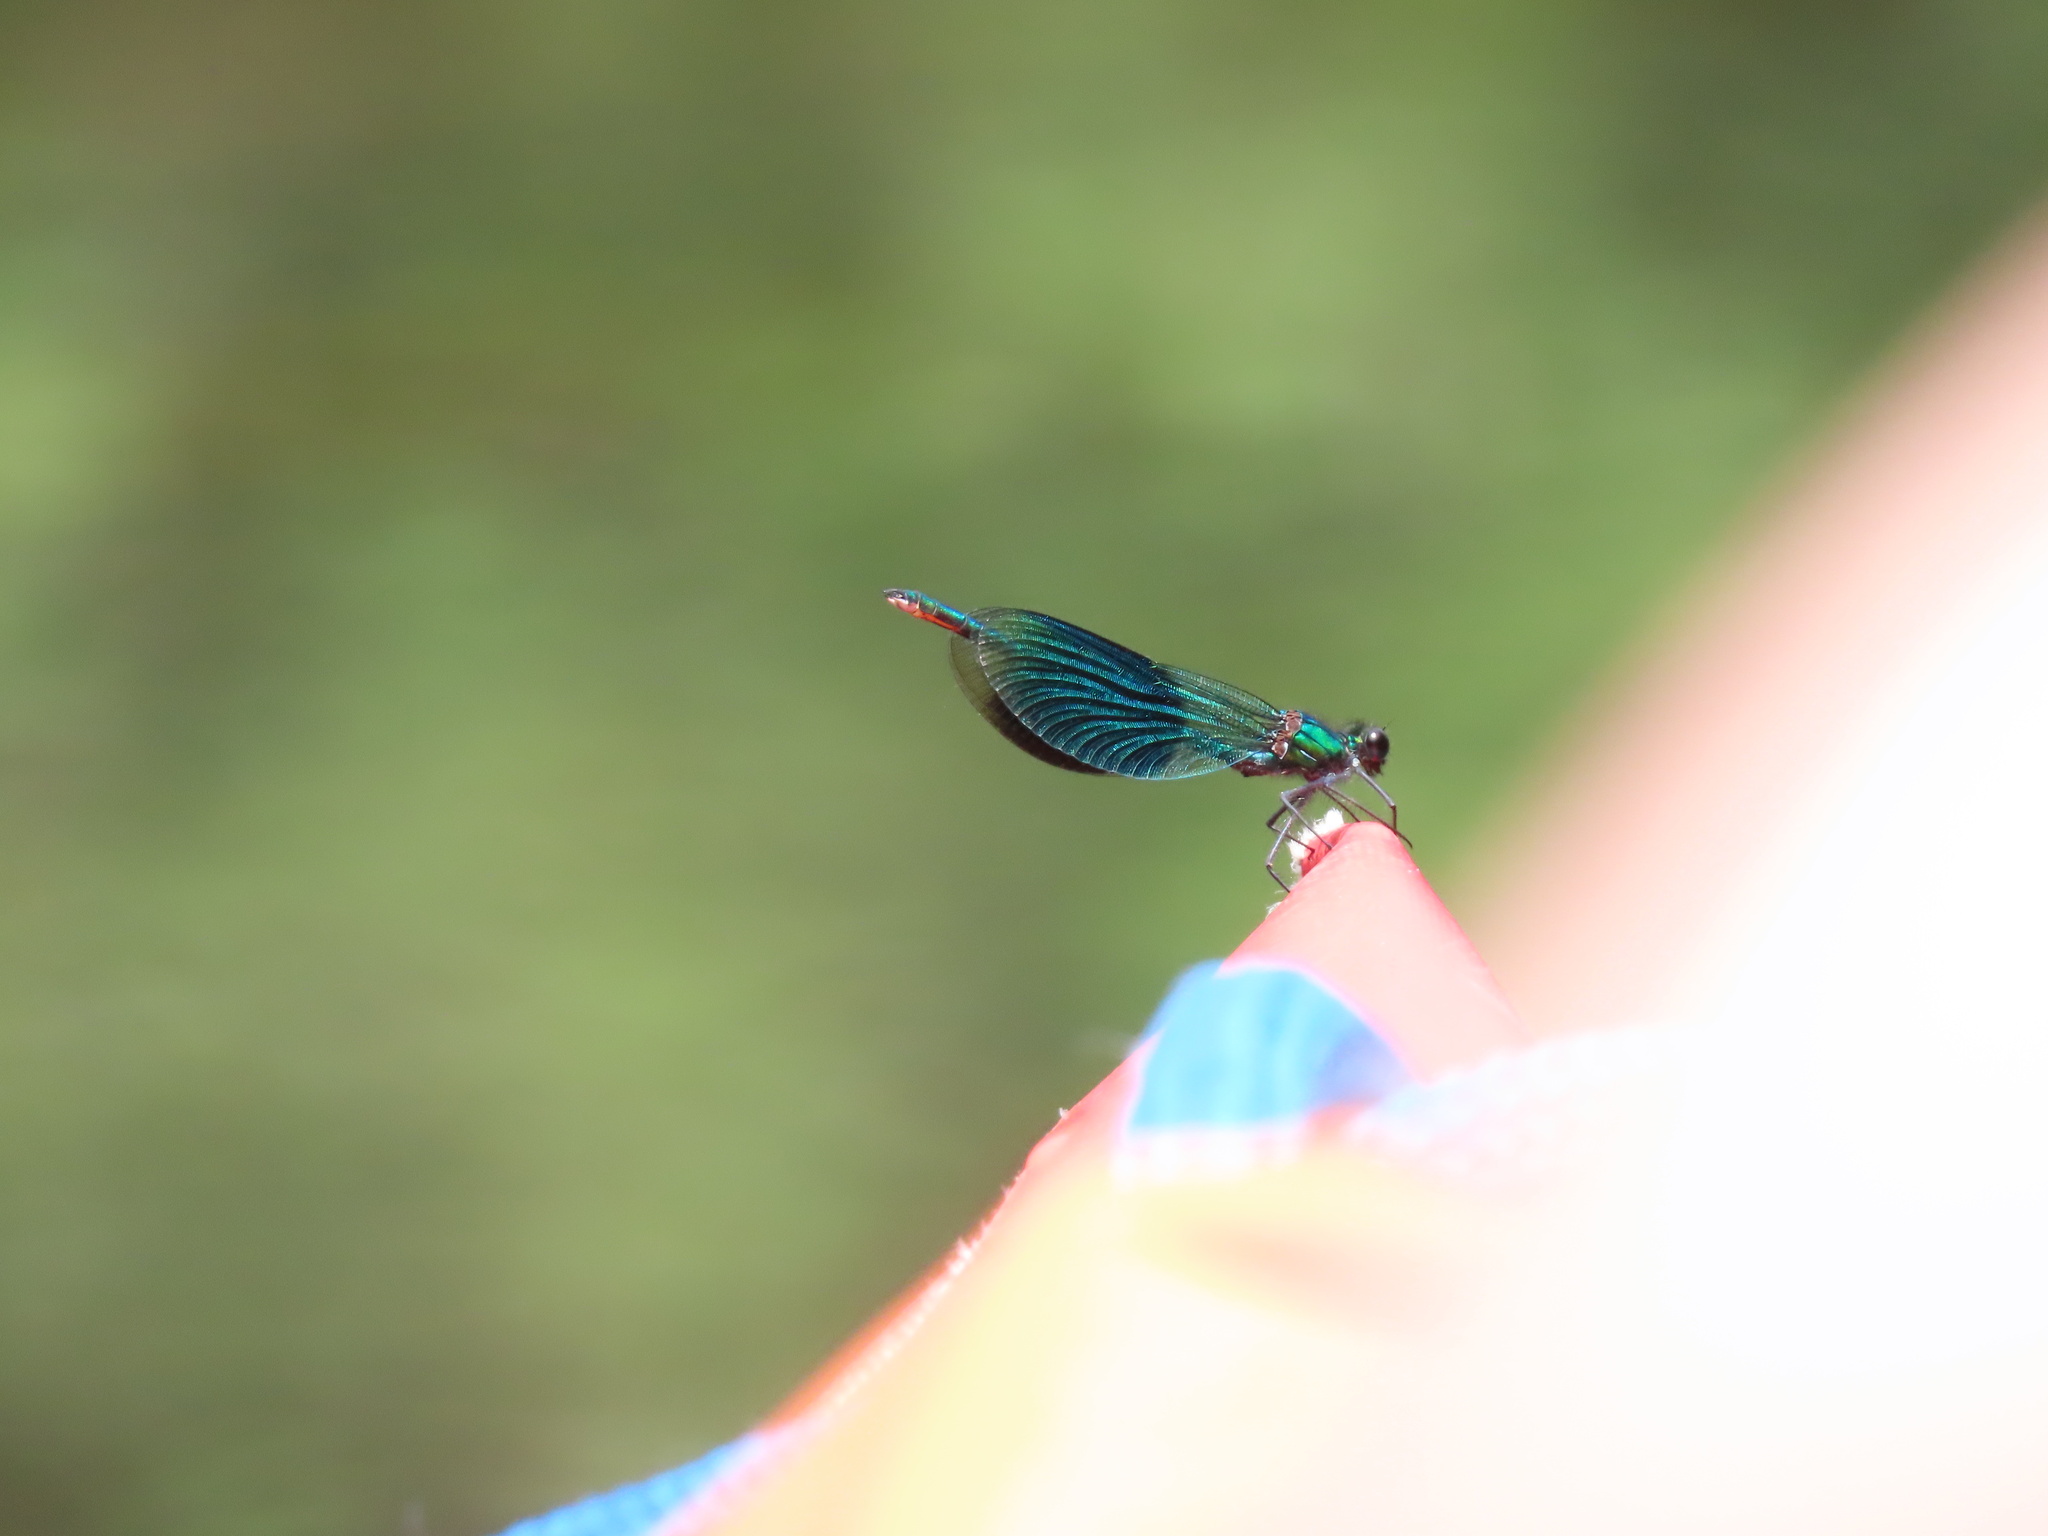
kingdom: Animalia
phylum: Arthropoda
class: Insecta
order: Odonata
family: Calopterygidae
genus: Calopteryx
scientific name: Calopteryx splendens
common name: Banded demoiselle
